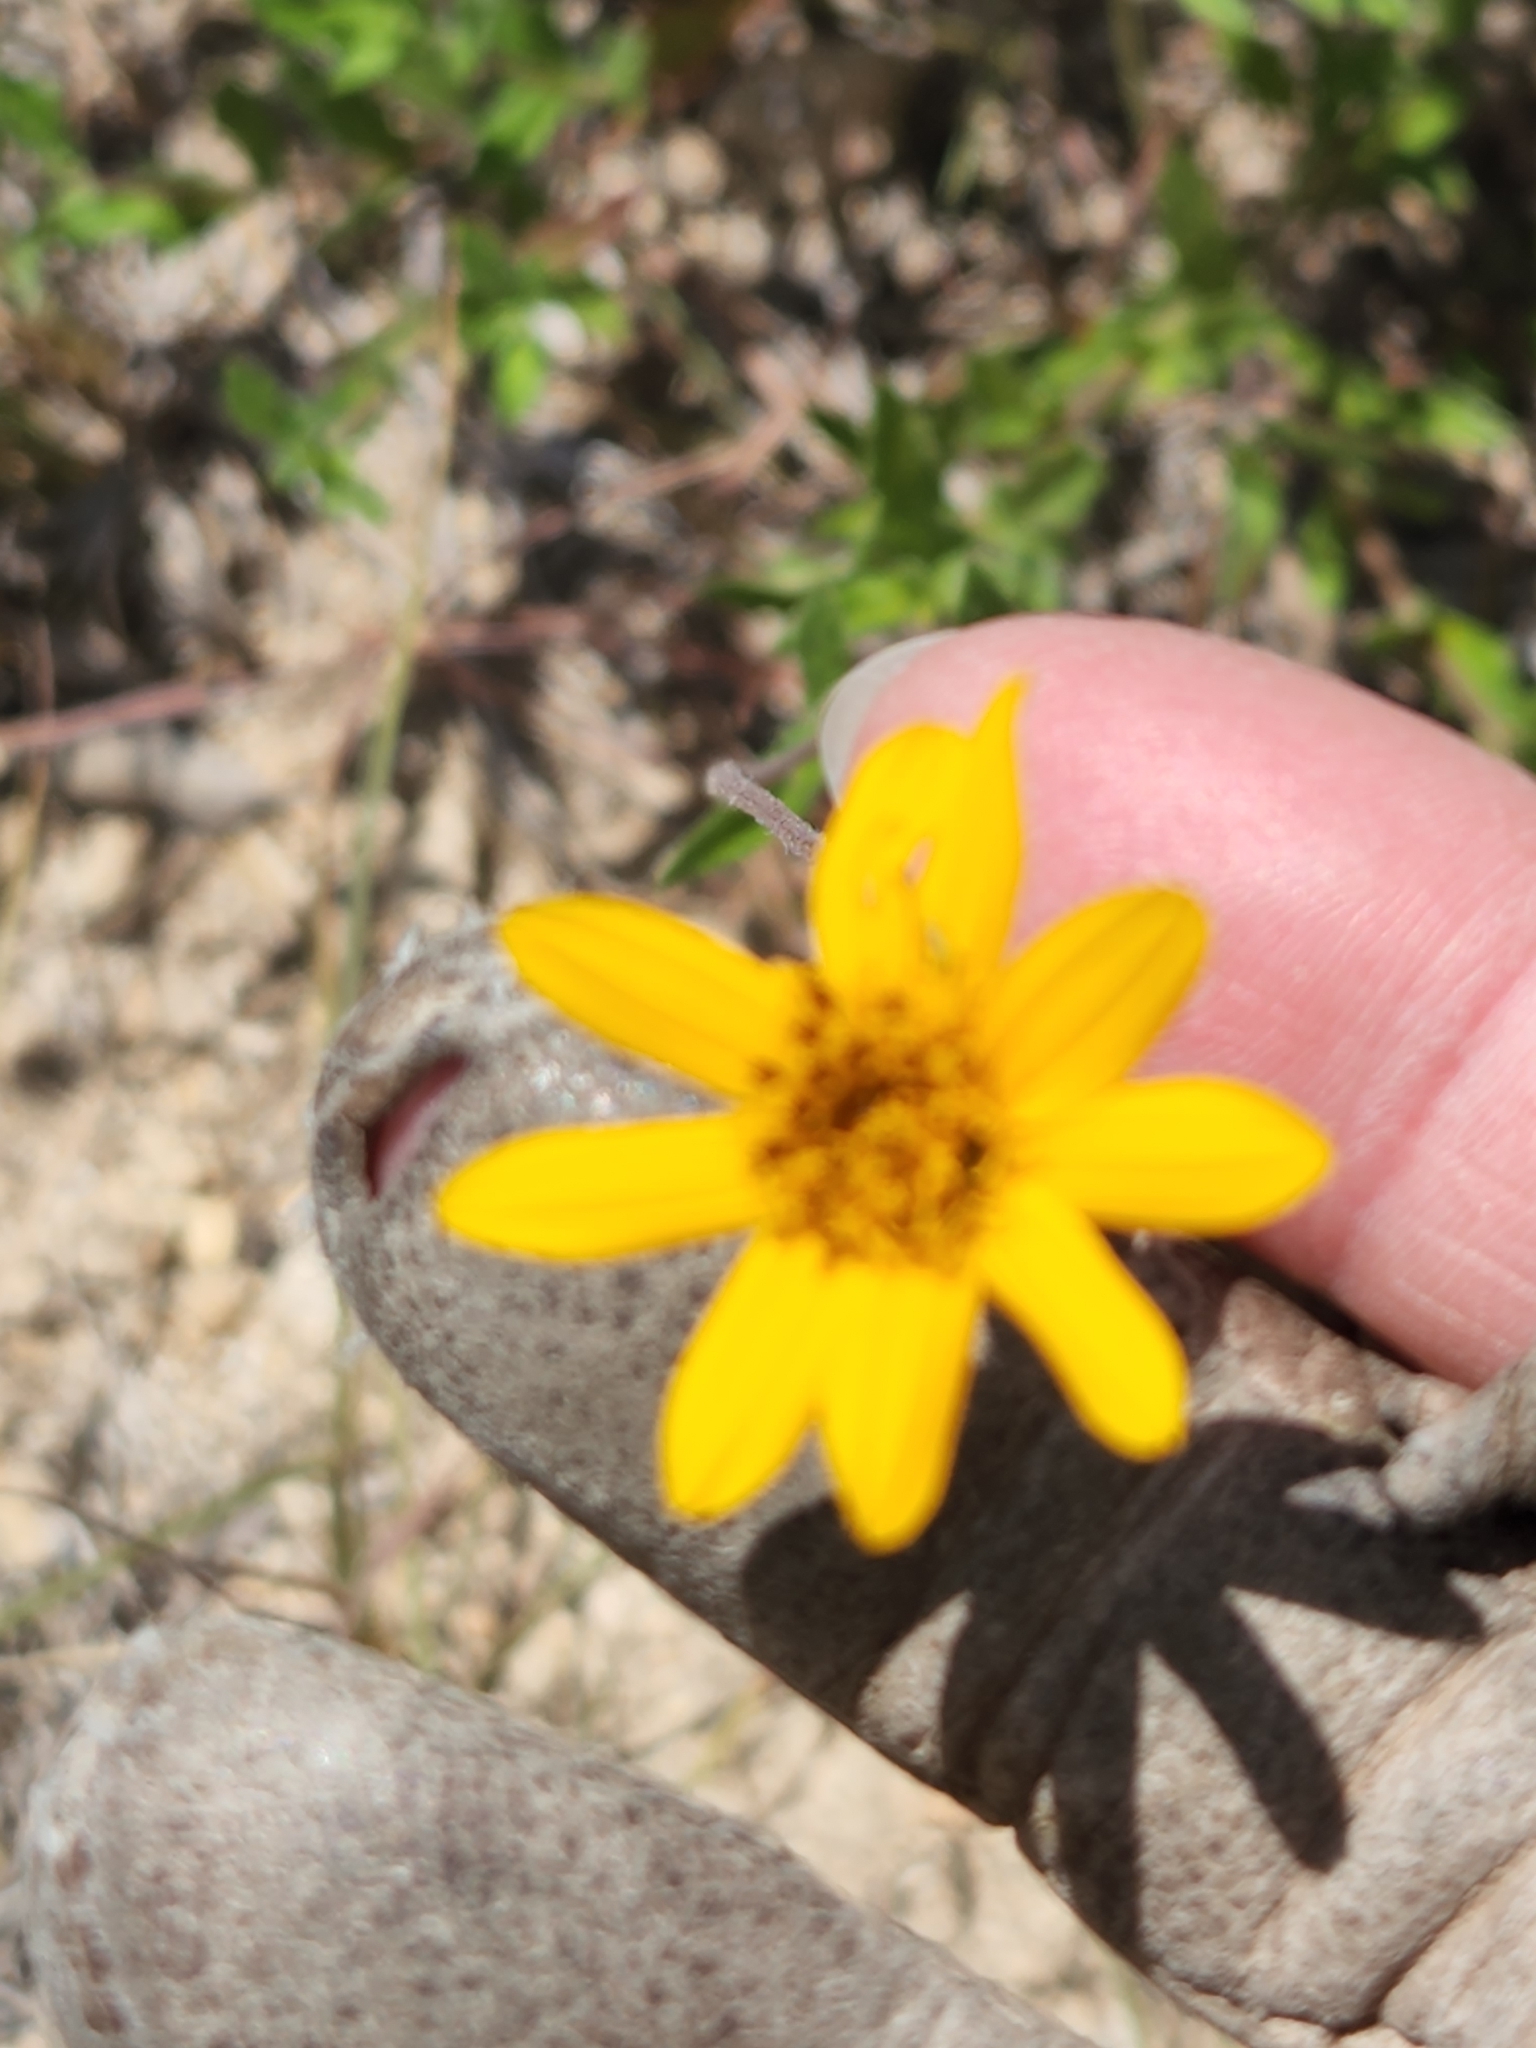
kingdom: Plantae
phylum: Tracheophyta
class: Magnoliopsida
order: Asterales
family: Asteraceae
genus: Wedelia
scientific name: Wedelia acapulcensis
